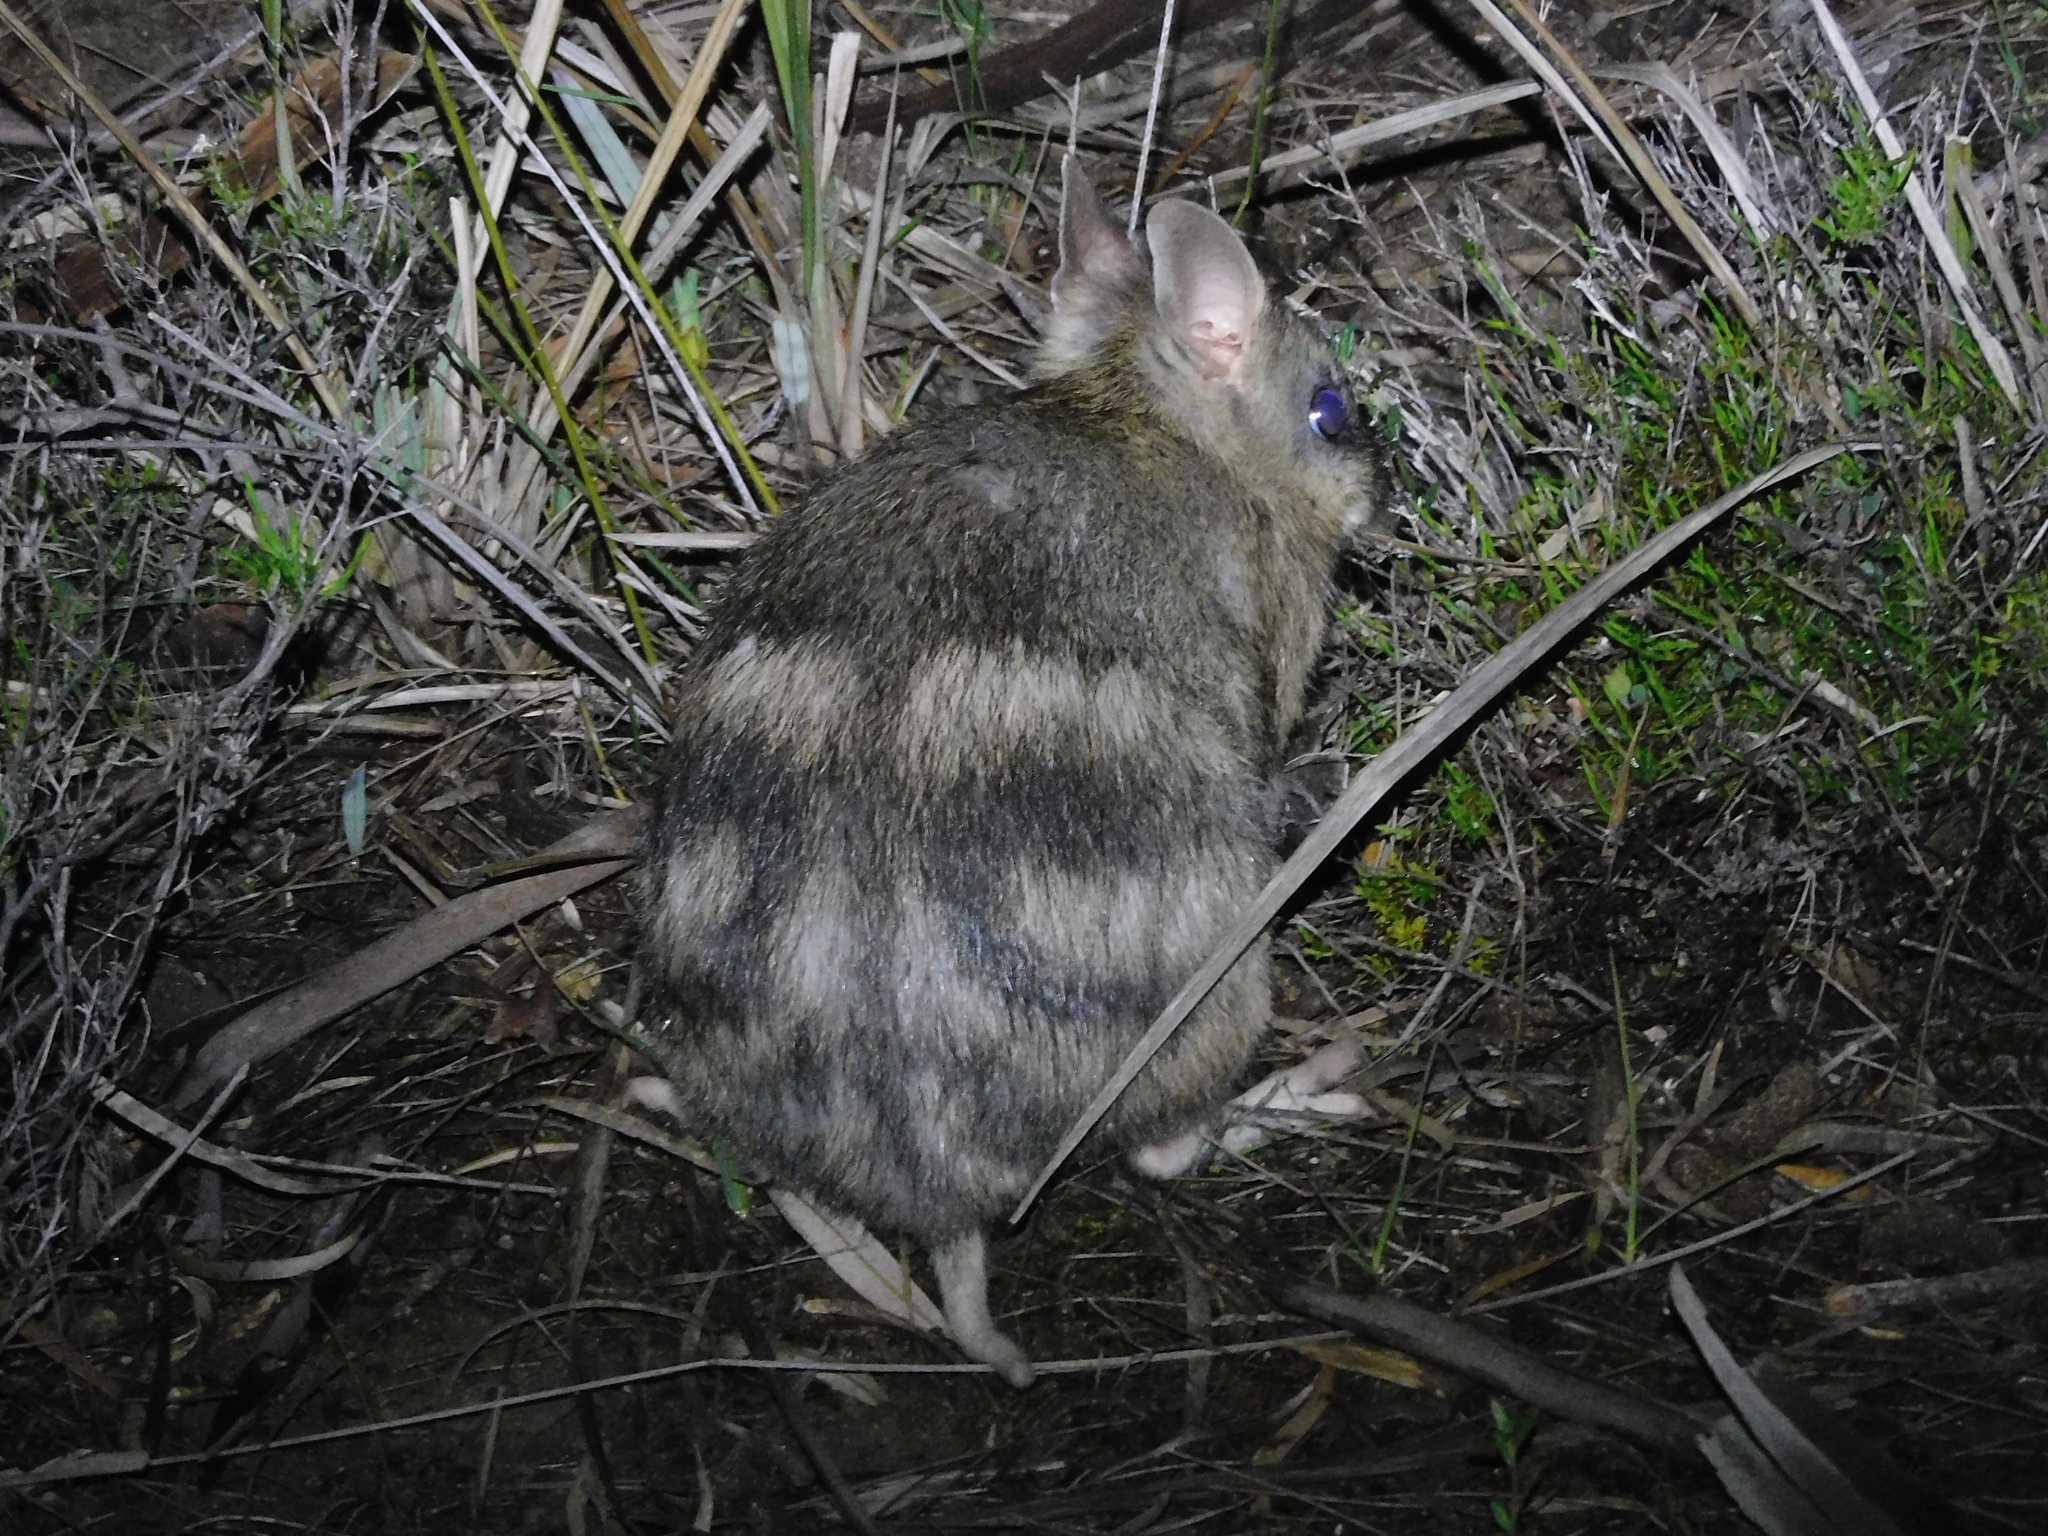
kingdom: Animalia
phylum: Chordata
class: Mammalia
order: Peramelemorphia
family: Peramelidae
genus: Perameles
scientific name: Perameles gunnii
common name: Eastern barred bandicoot
